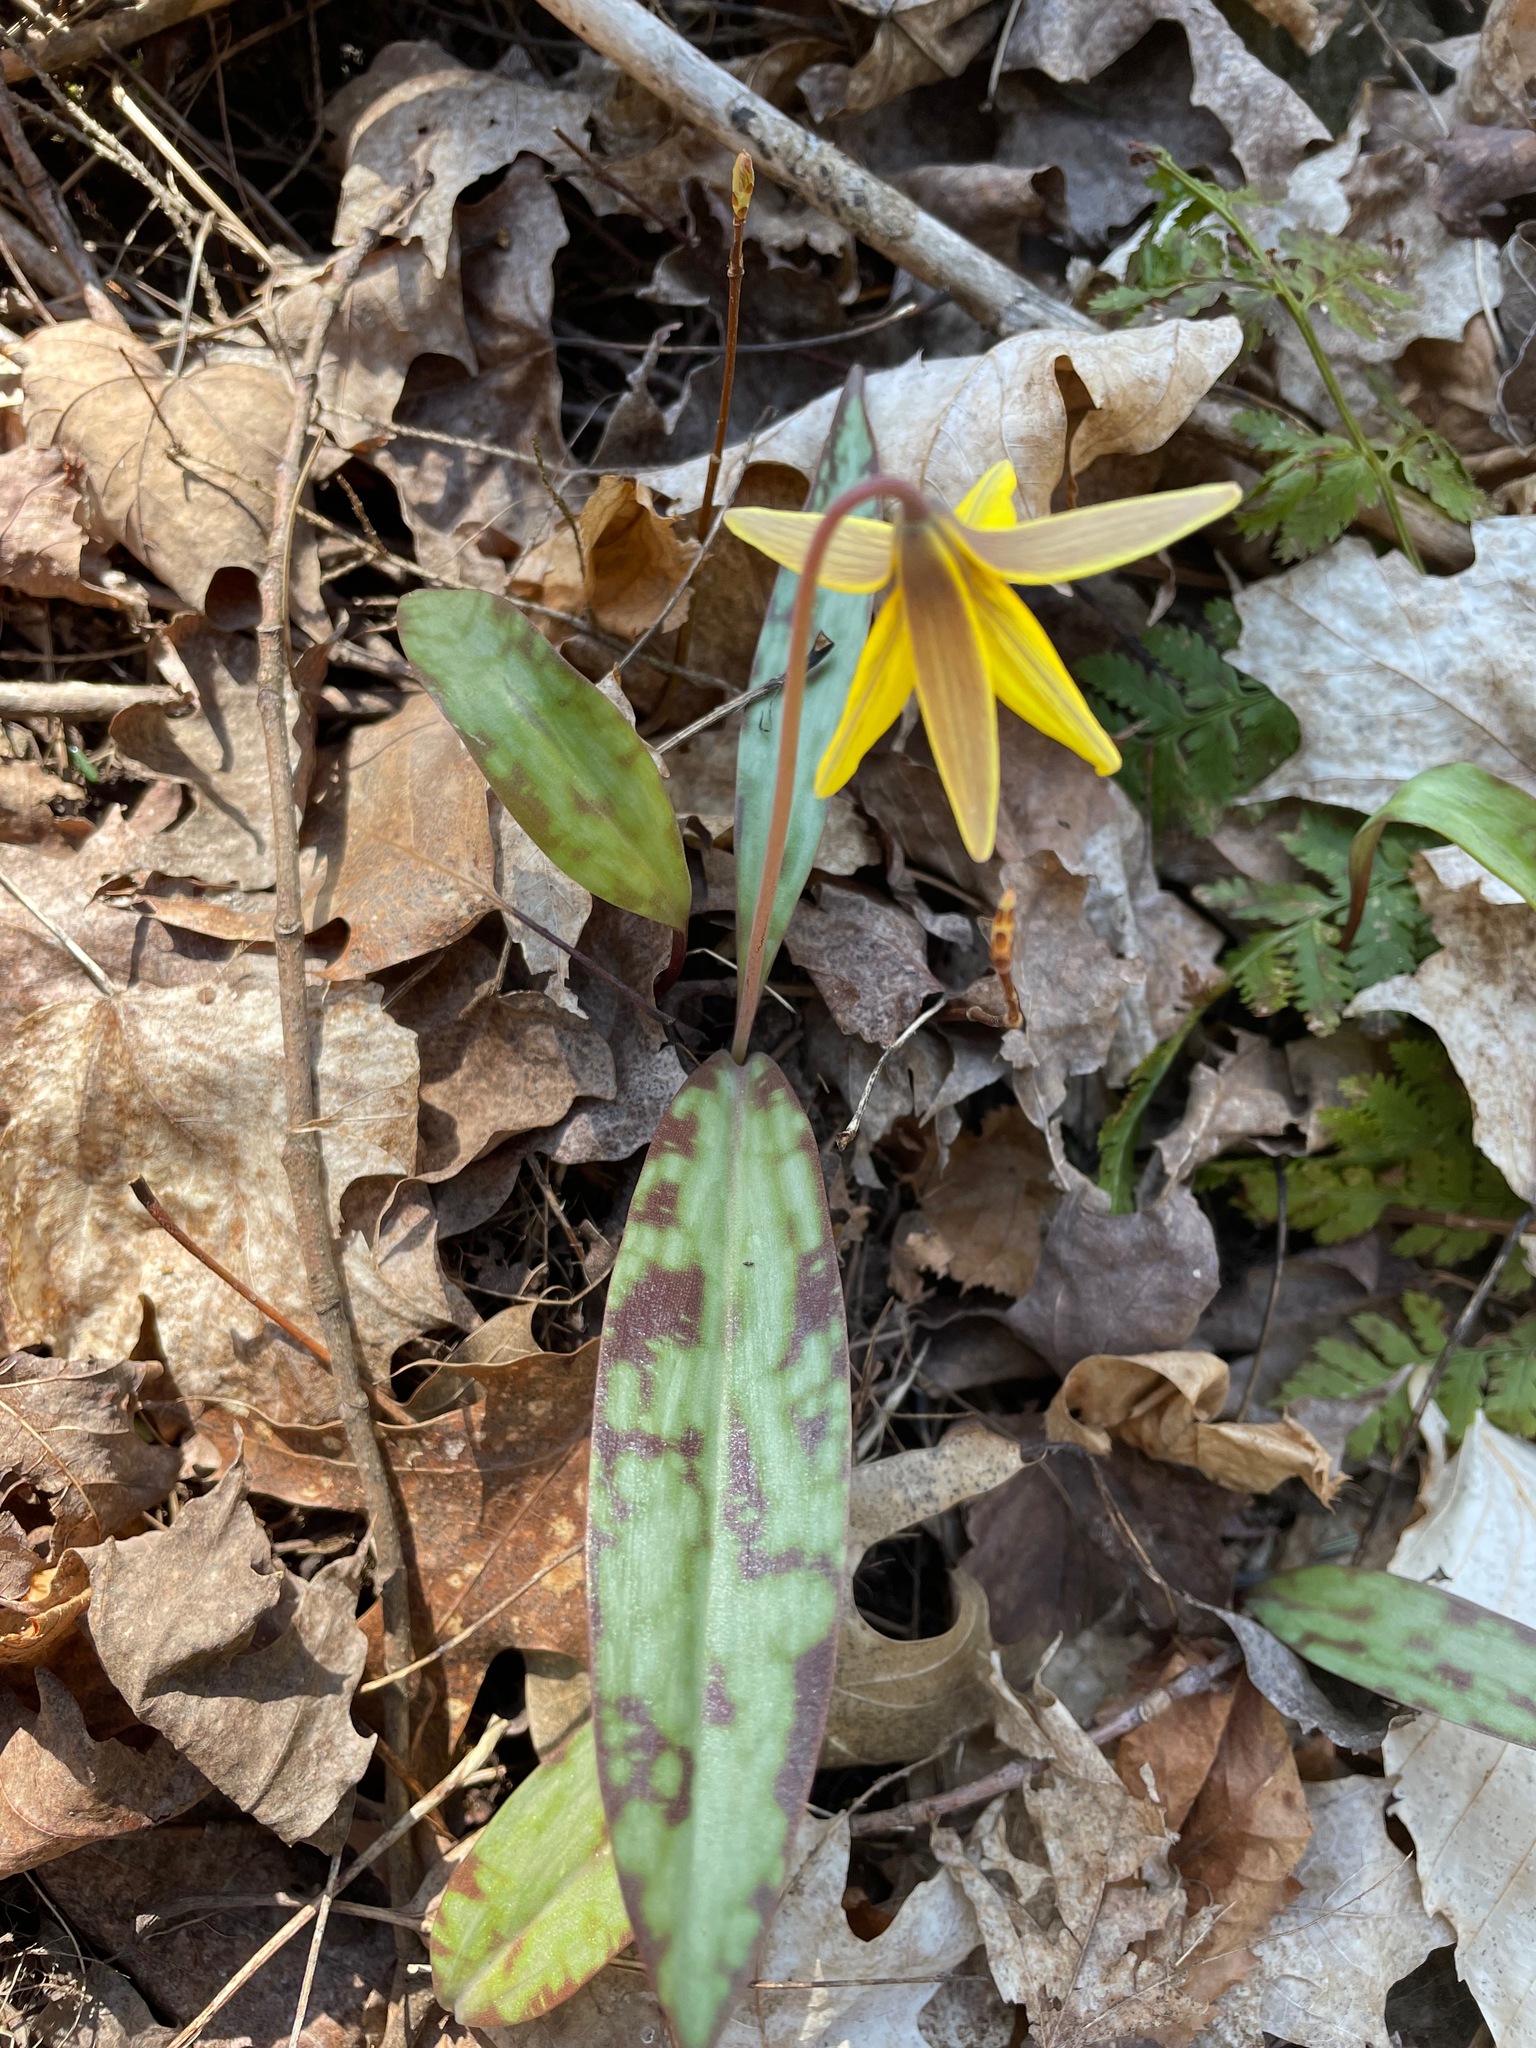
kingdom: Plantae
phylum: Tracheophyta
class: Liliopsida
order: Liliales
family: Liliaceae
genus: Erythronium
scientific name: Erythronium americanum
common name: Yellow adder's-tongue
